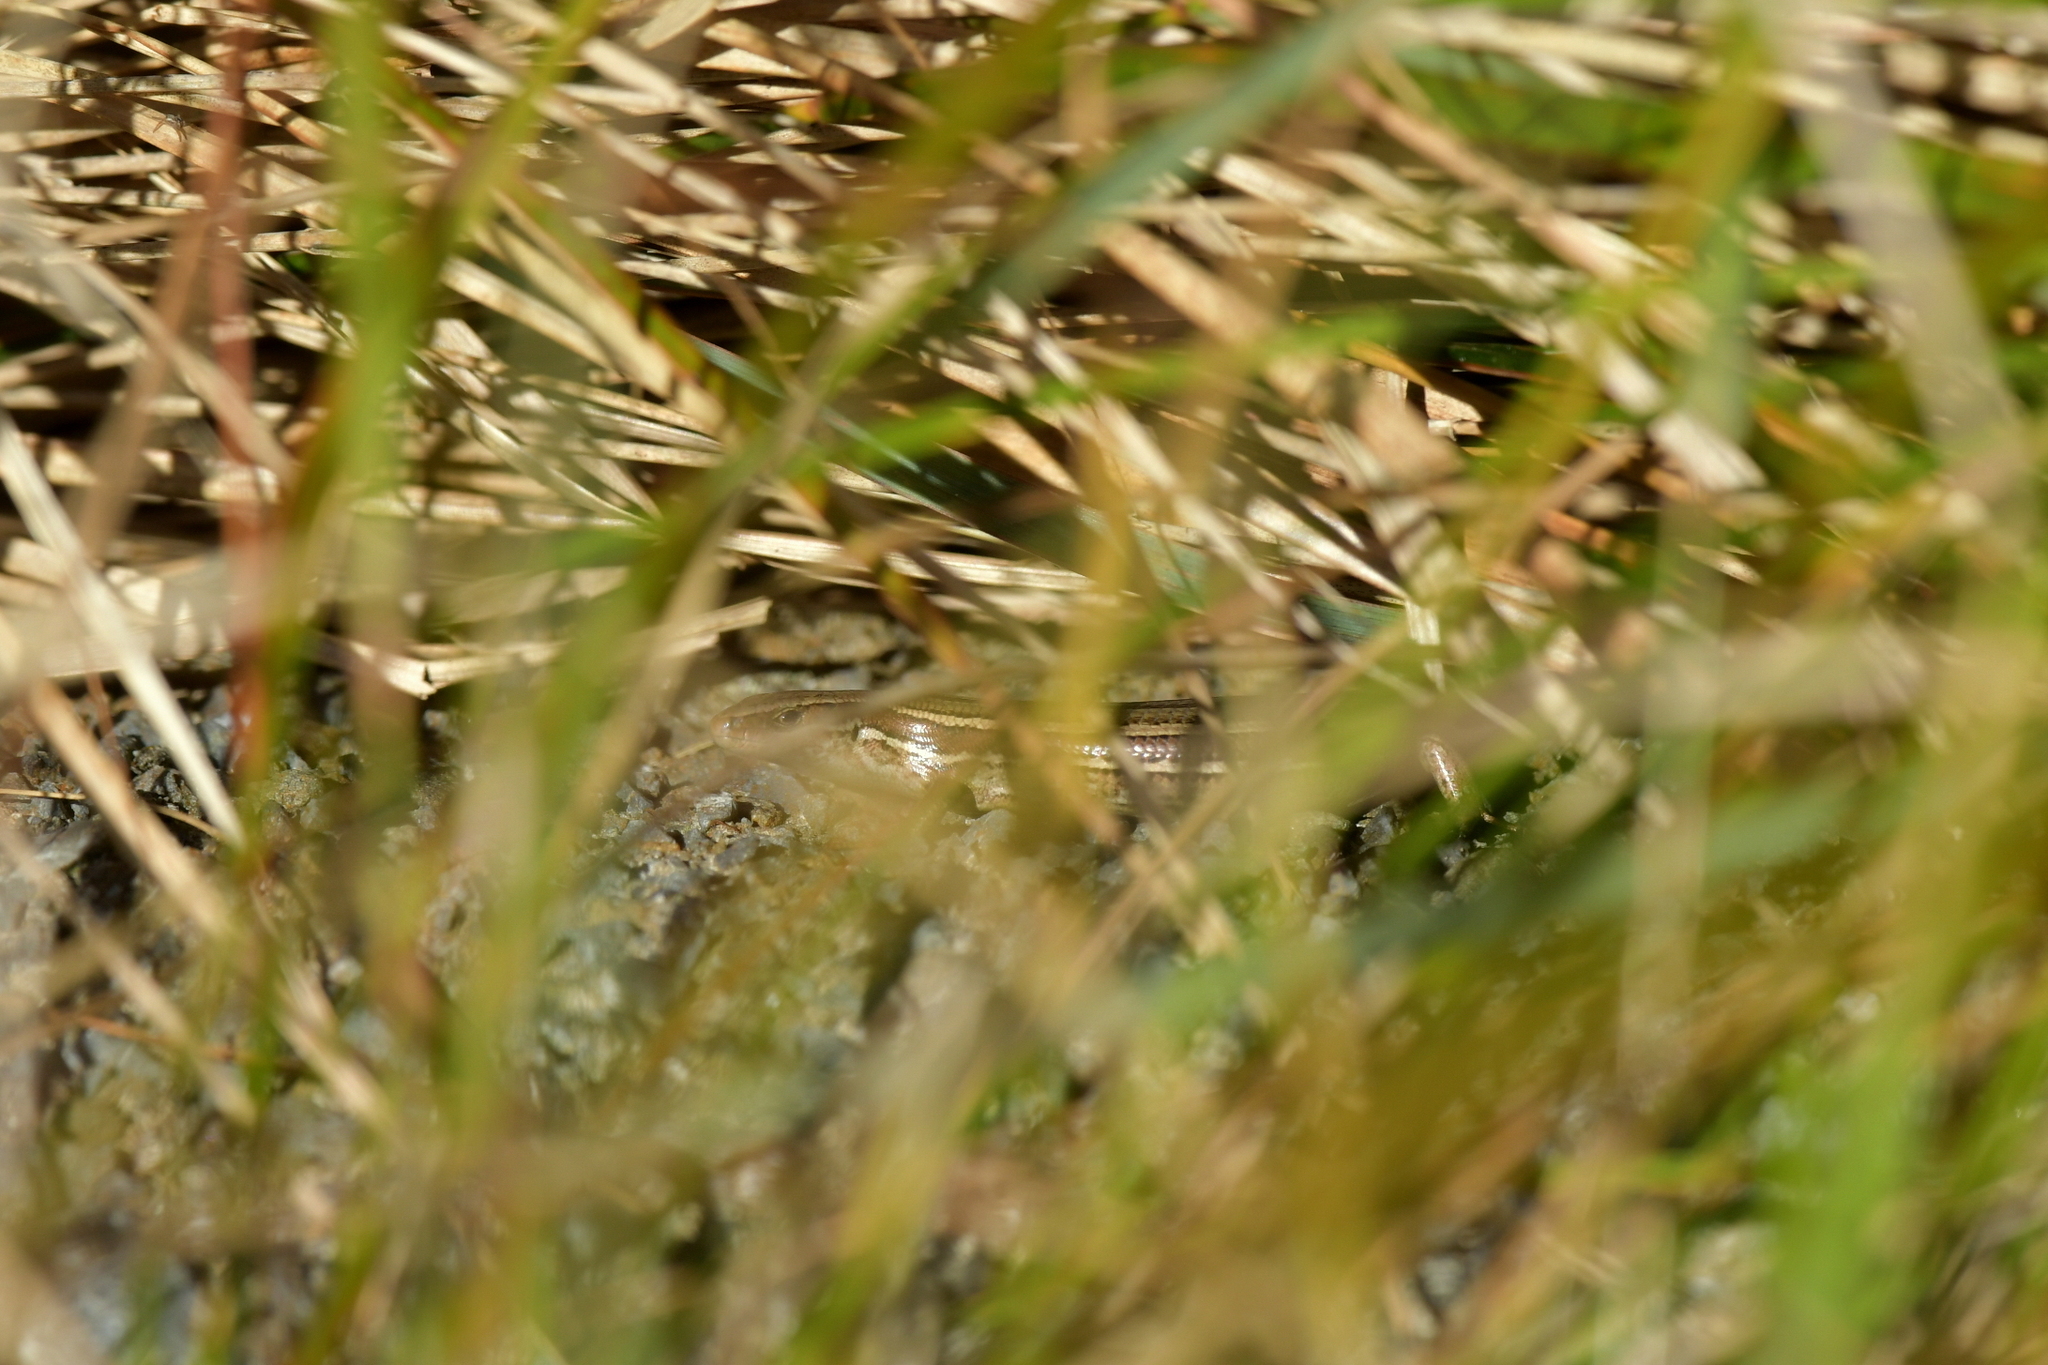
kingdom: Animalia
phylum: Chordata
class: Squamata
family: Scincidae
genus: Oligosoma
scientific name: Oligosoma polychroma
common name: Common new zealand skink
